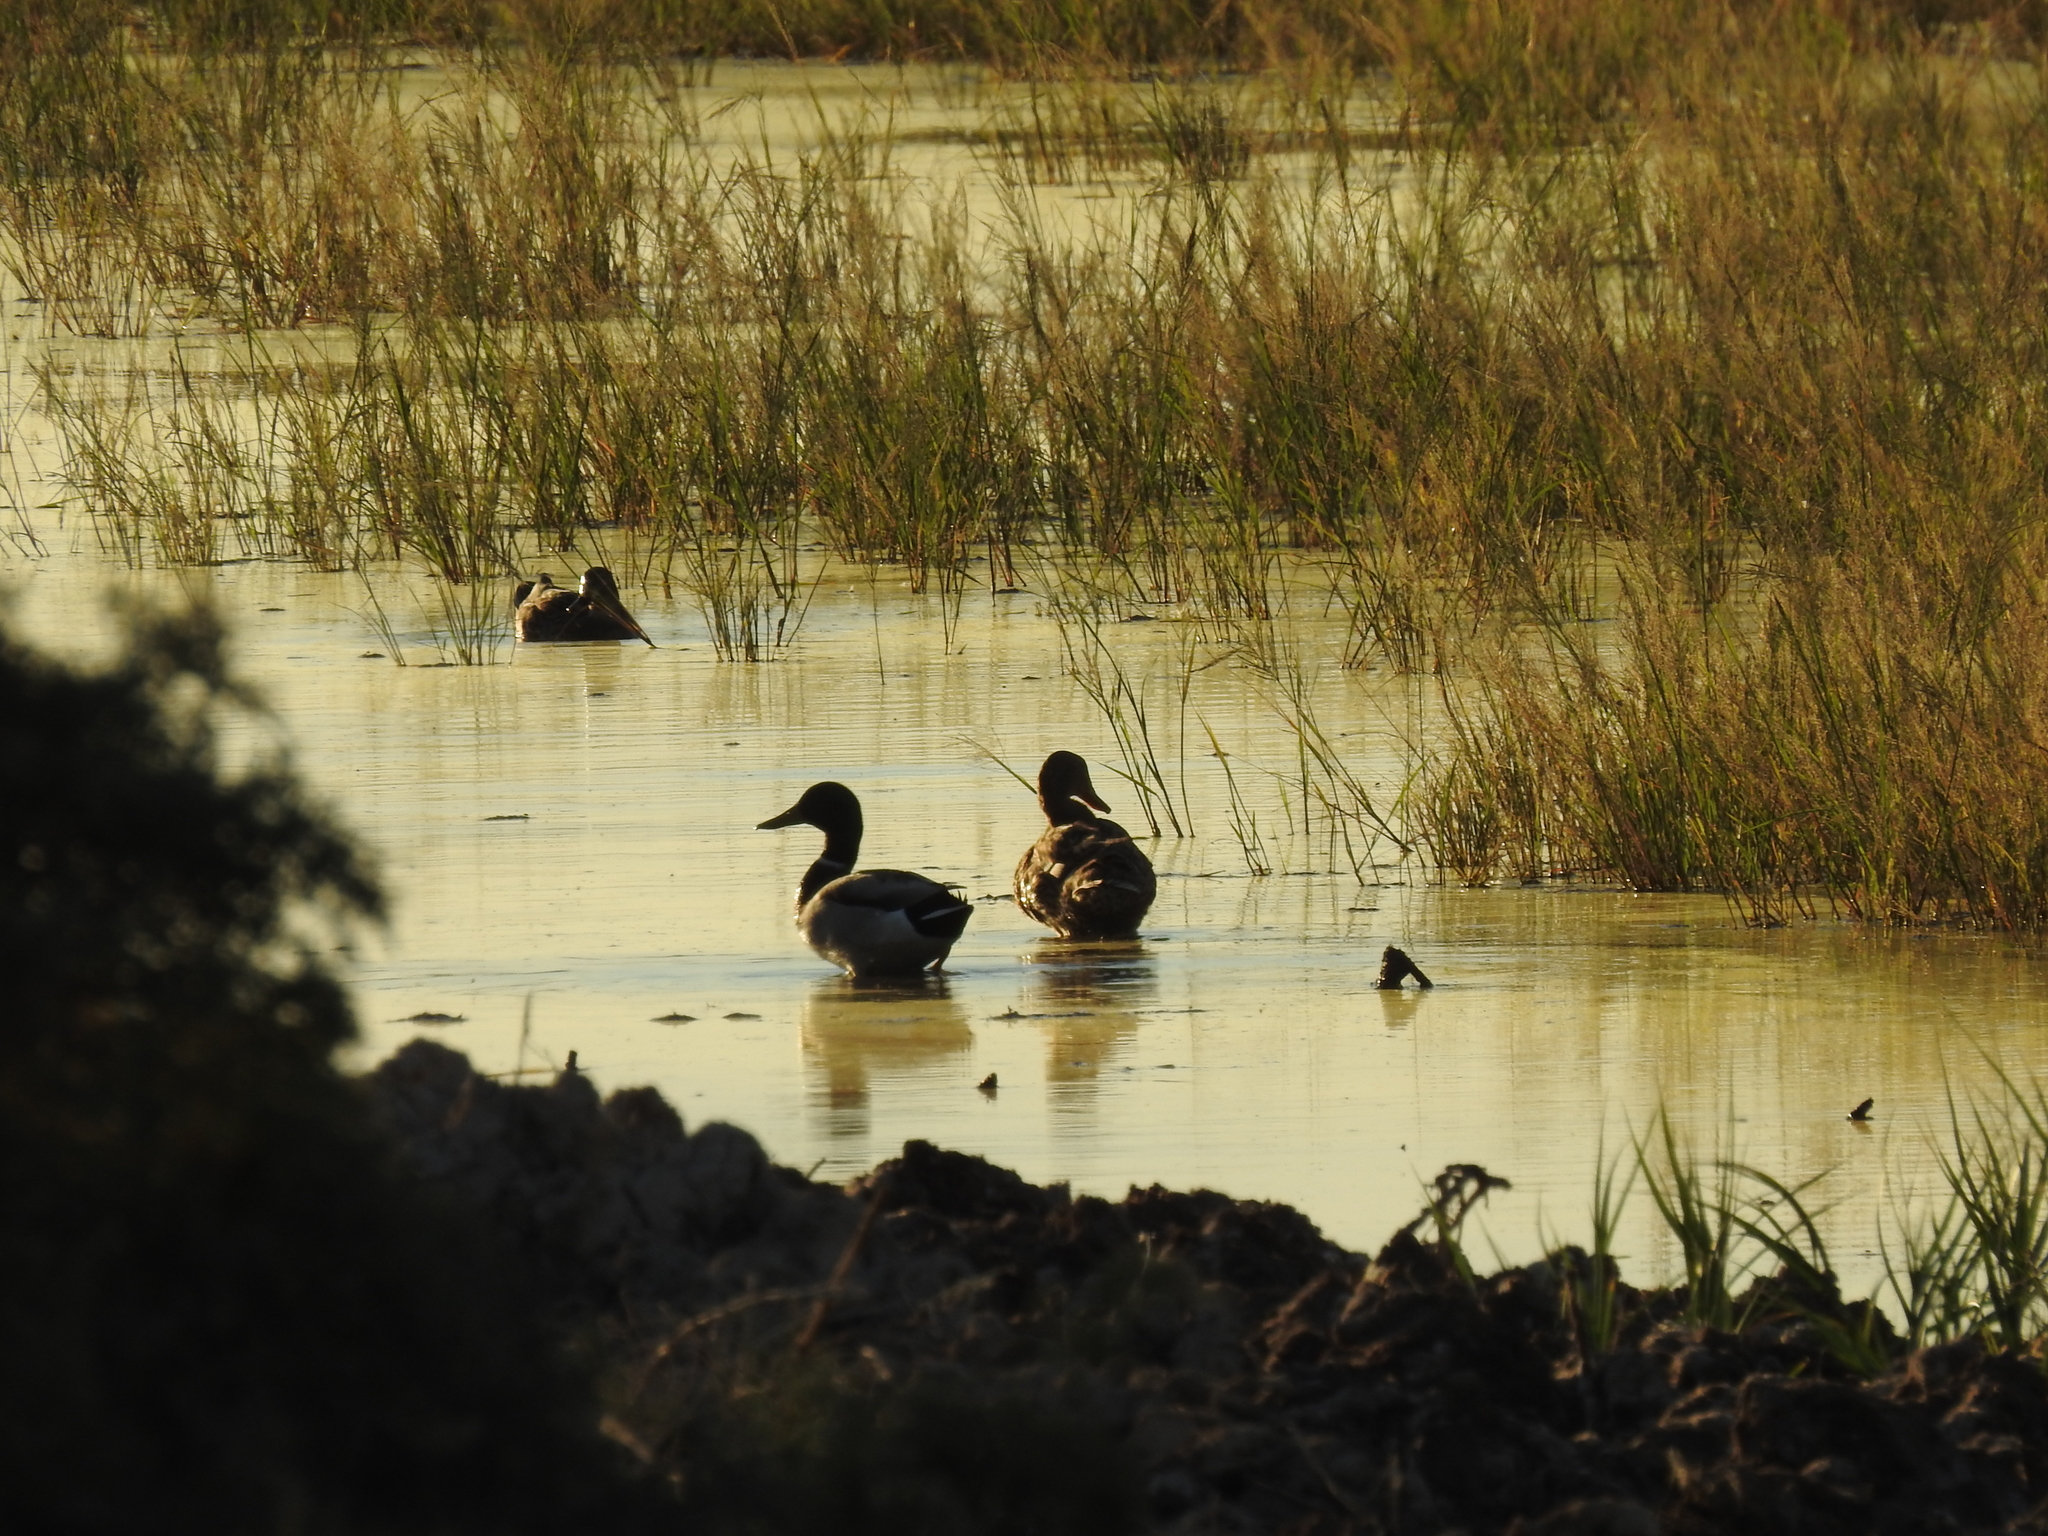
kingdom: Animalia
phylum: Chordata
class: Aves
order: Anseriformes
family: Anatidae
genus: Anas
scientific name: Anas platyrhynchos
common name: Mallard
